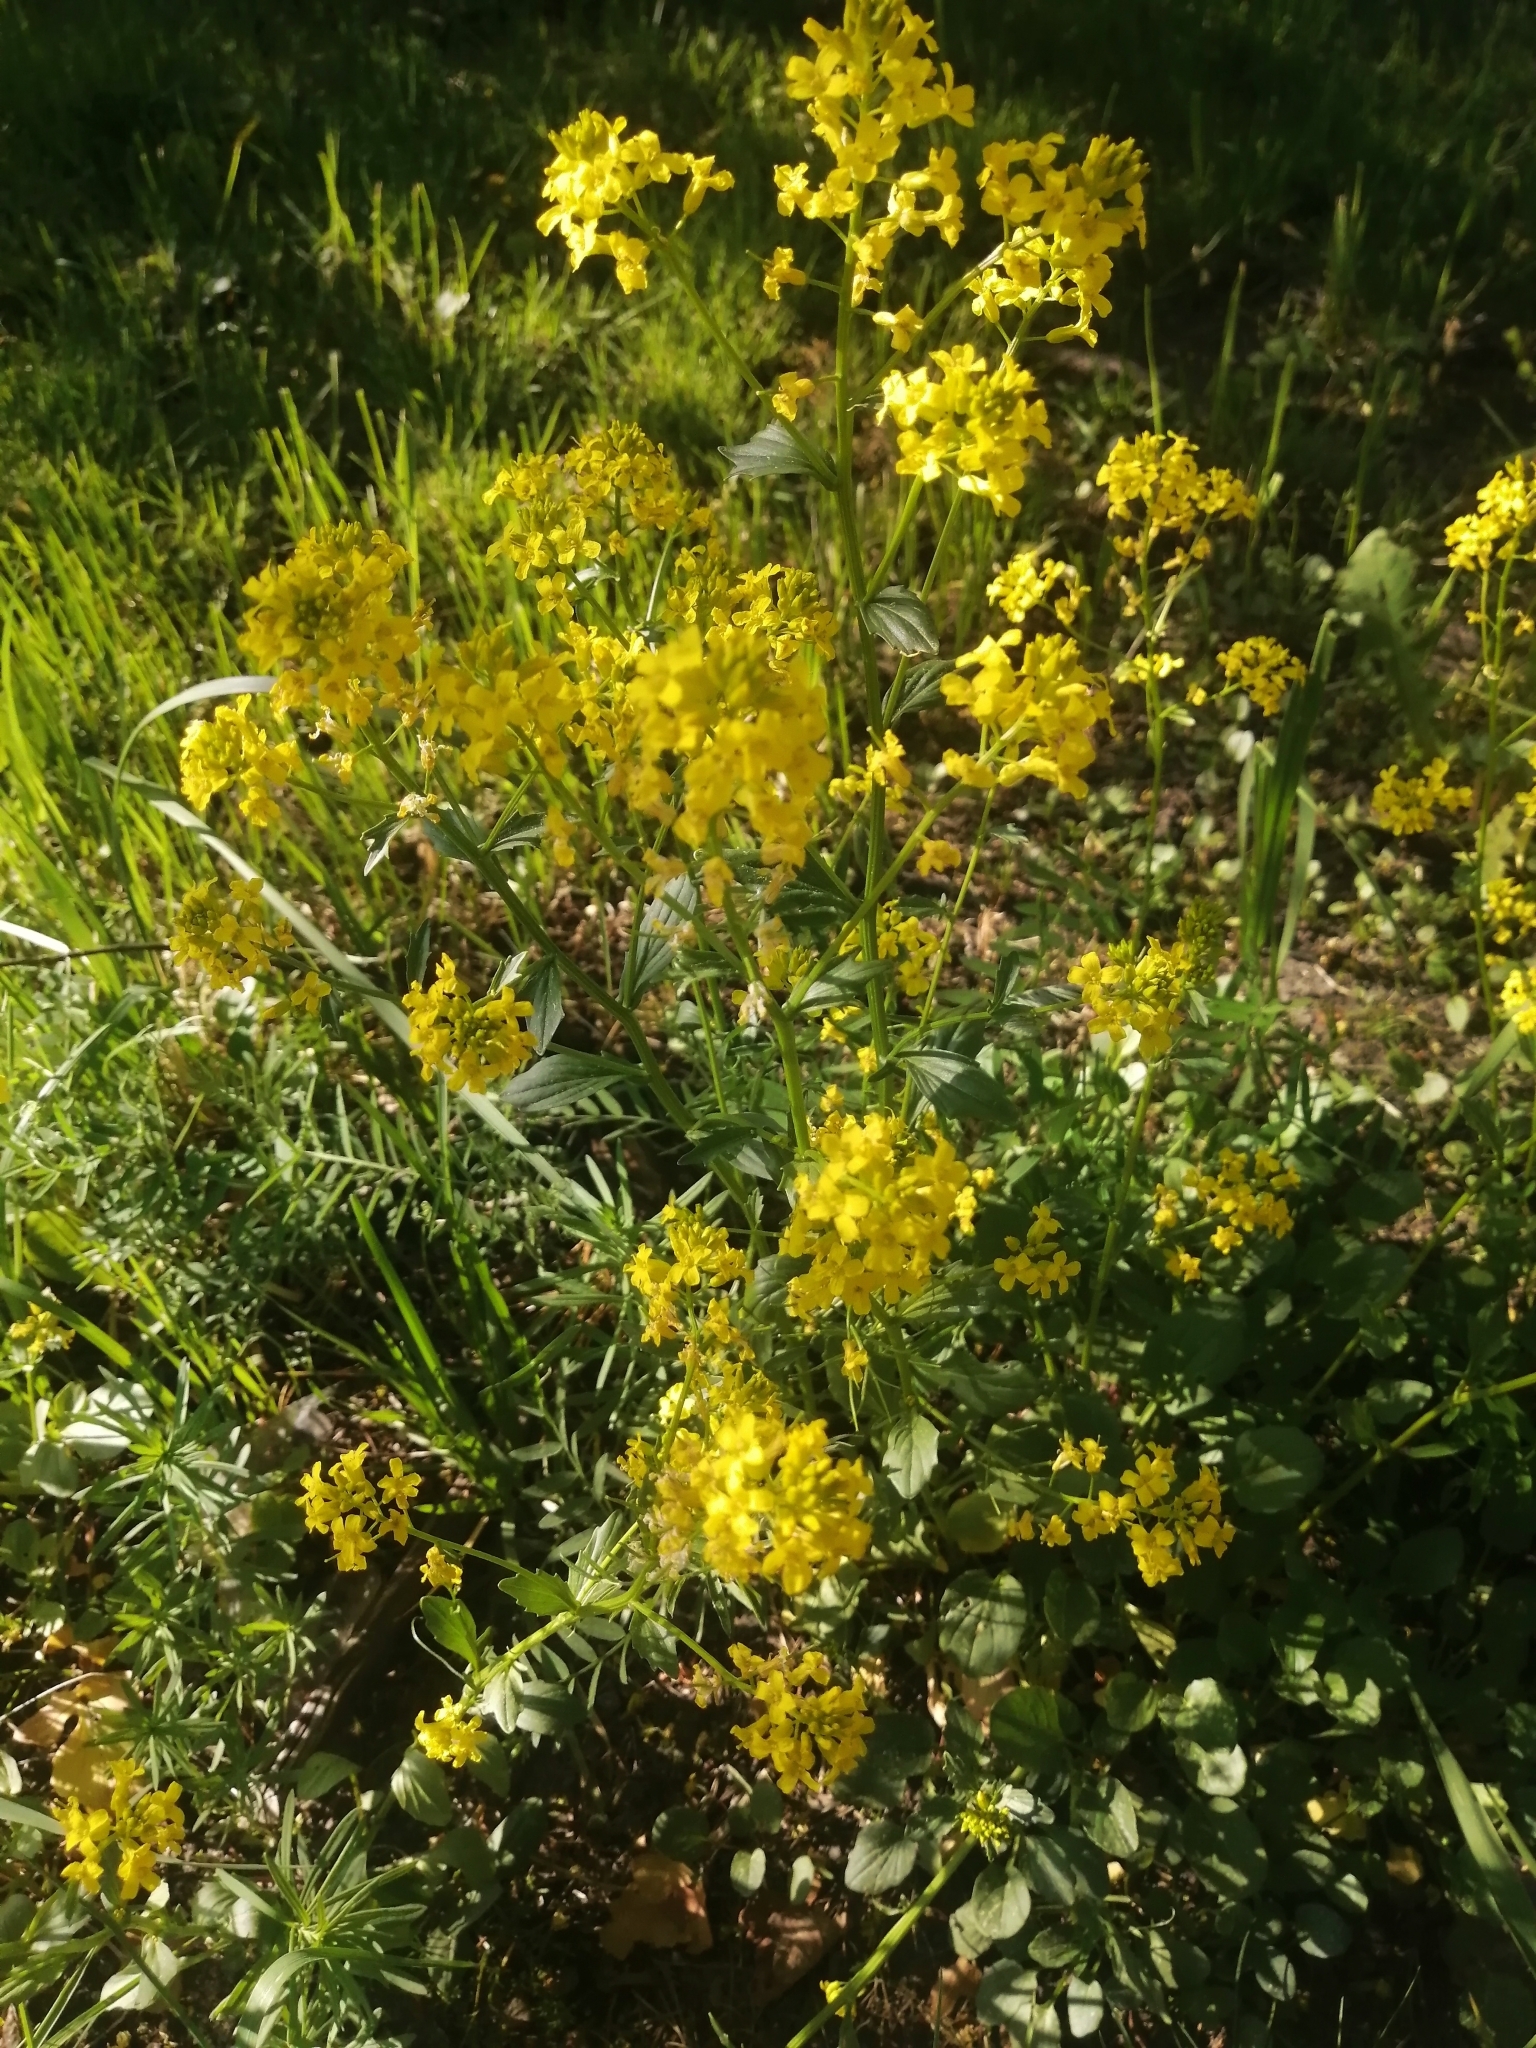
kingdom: Plantae
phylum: Tracheophyta
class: Magnoliopsida
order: Brassicales
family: Brassicaceae
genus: Barbarea
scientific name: Barbarea vulgaris
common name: Cressy-greens
